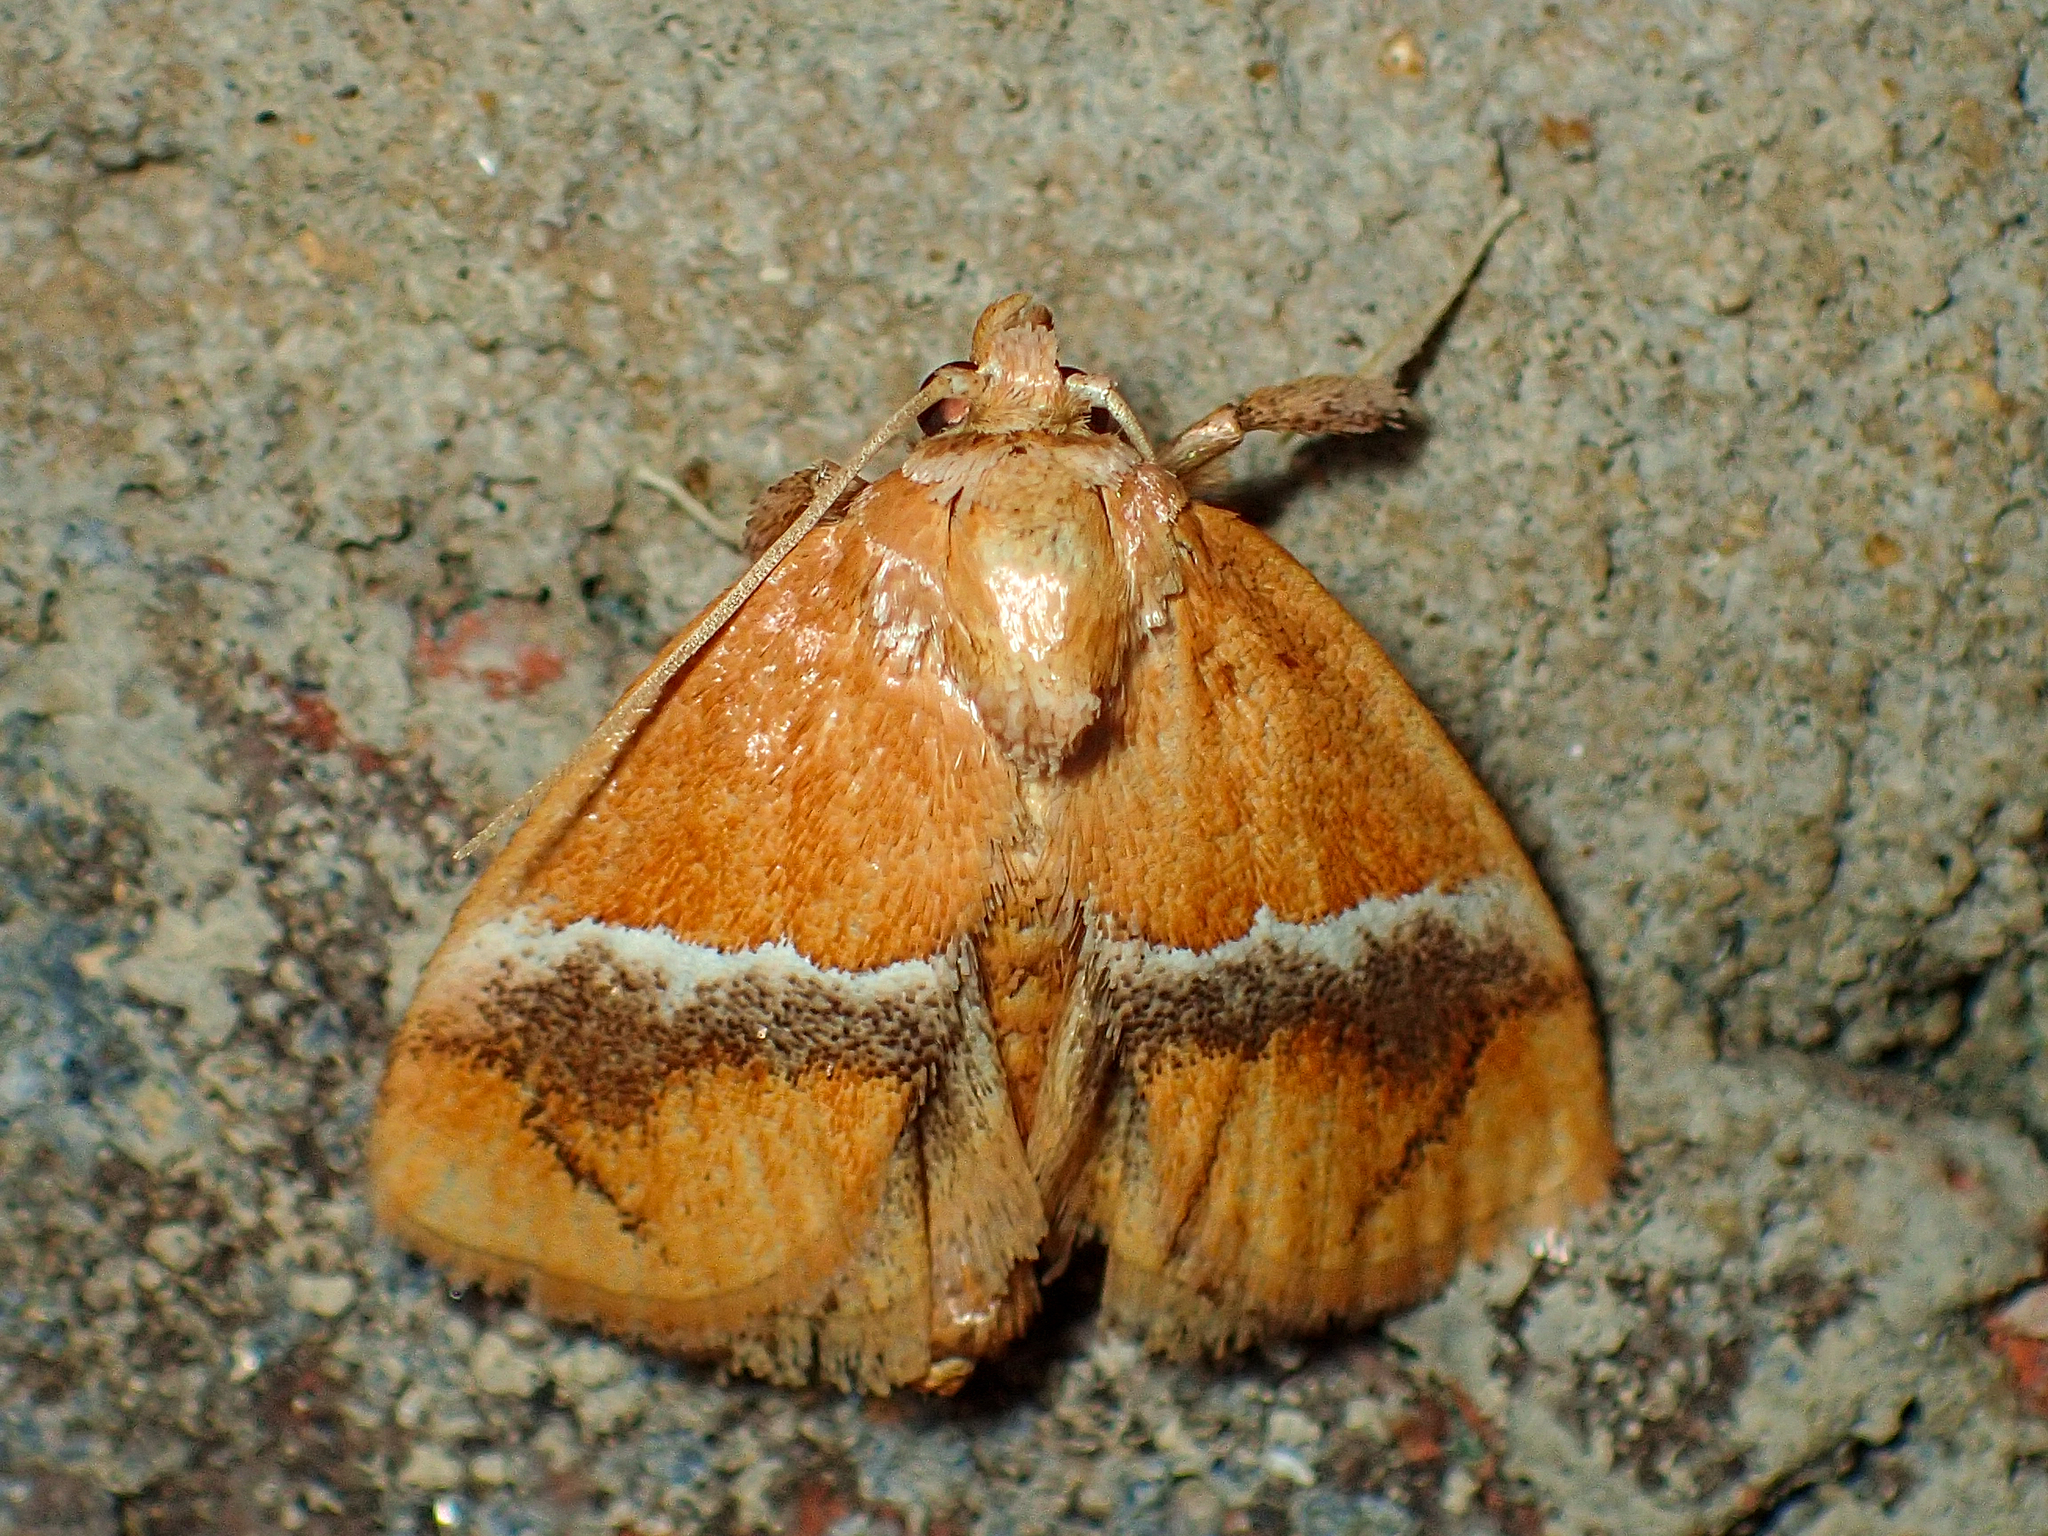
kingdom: Animalia
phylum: Arthropoda
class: Insecta
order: Lepidoptera
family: Limacodidae
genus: Lithacodes
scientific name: Lithacodes fasciola
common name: Yellow-shouldered slug moth
